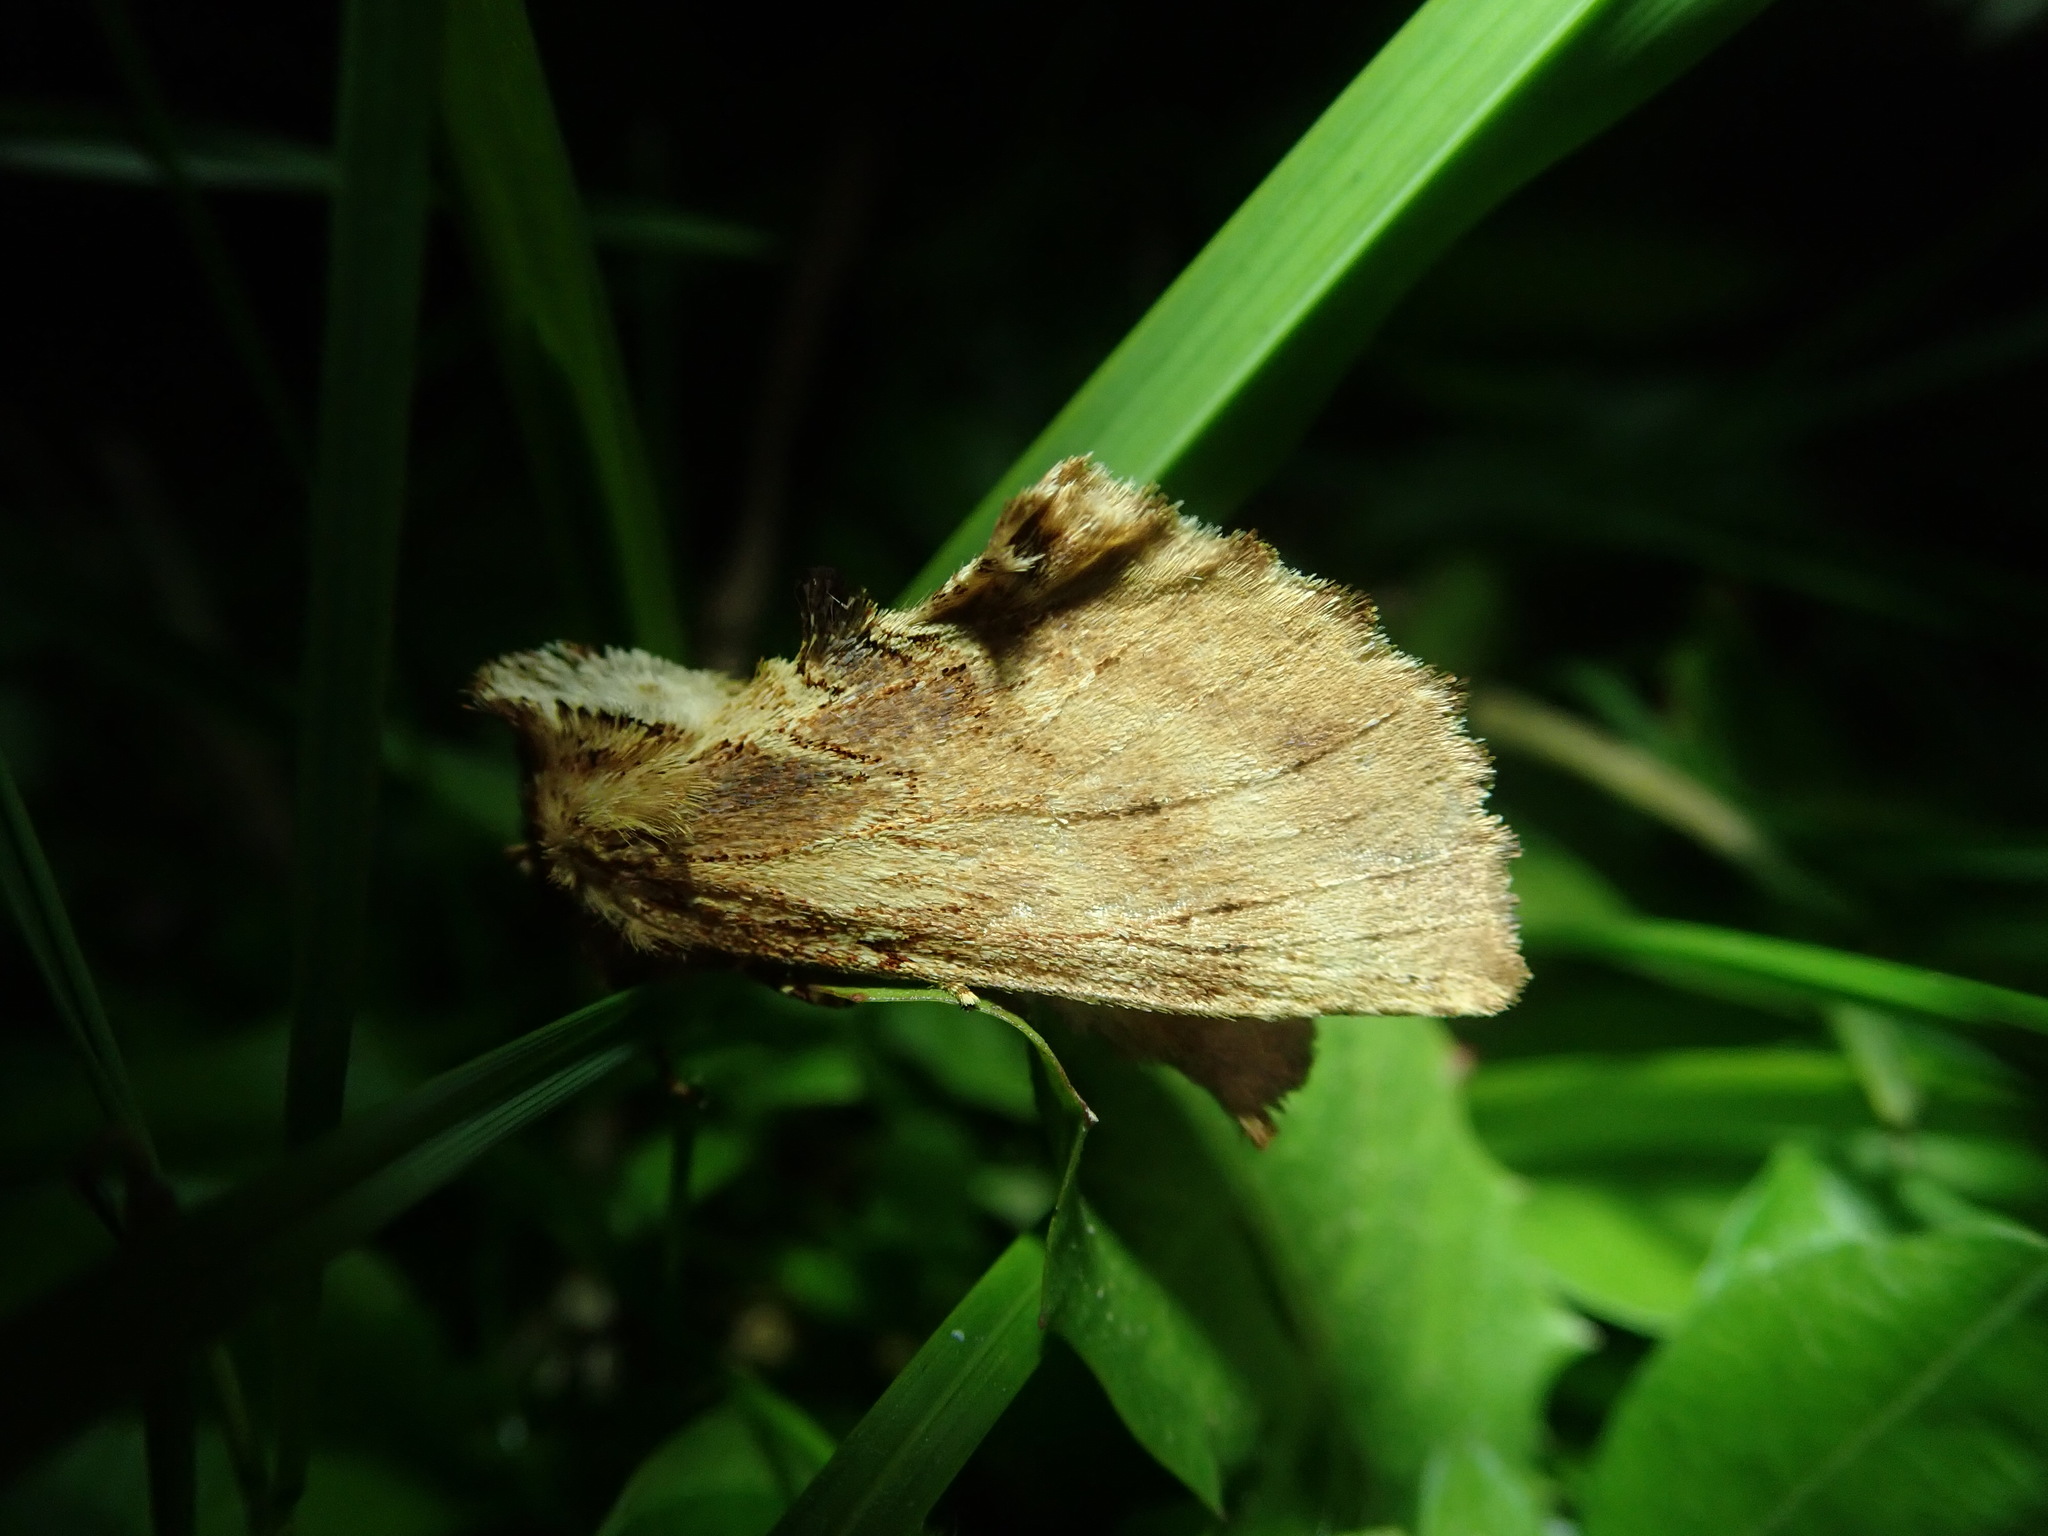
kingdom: Animalia
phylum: Arthropoda
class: Insecta
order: Lepidoptera
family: Notodontidae
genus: Ptilodon
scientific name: Ptilodon capucina
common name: Coxcomb prominent
